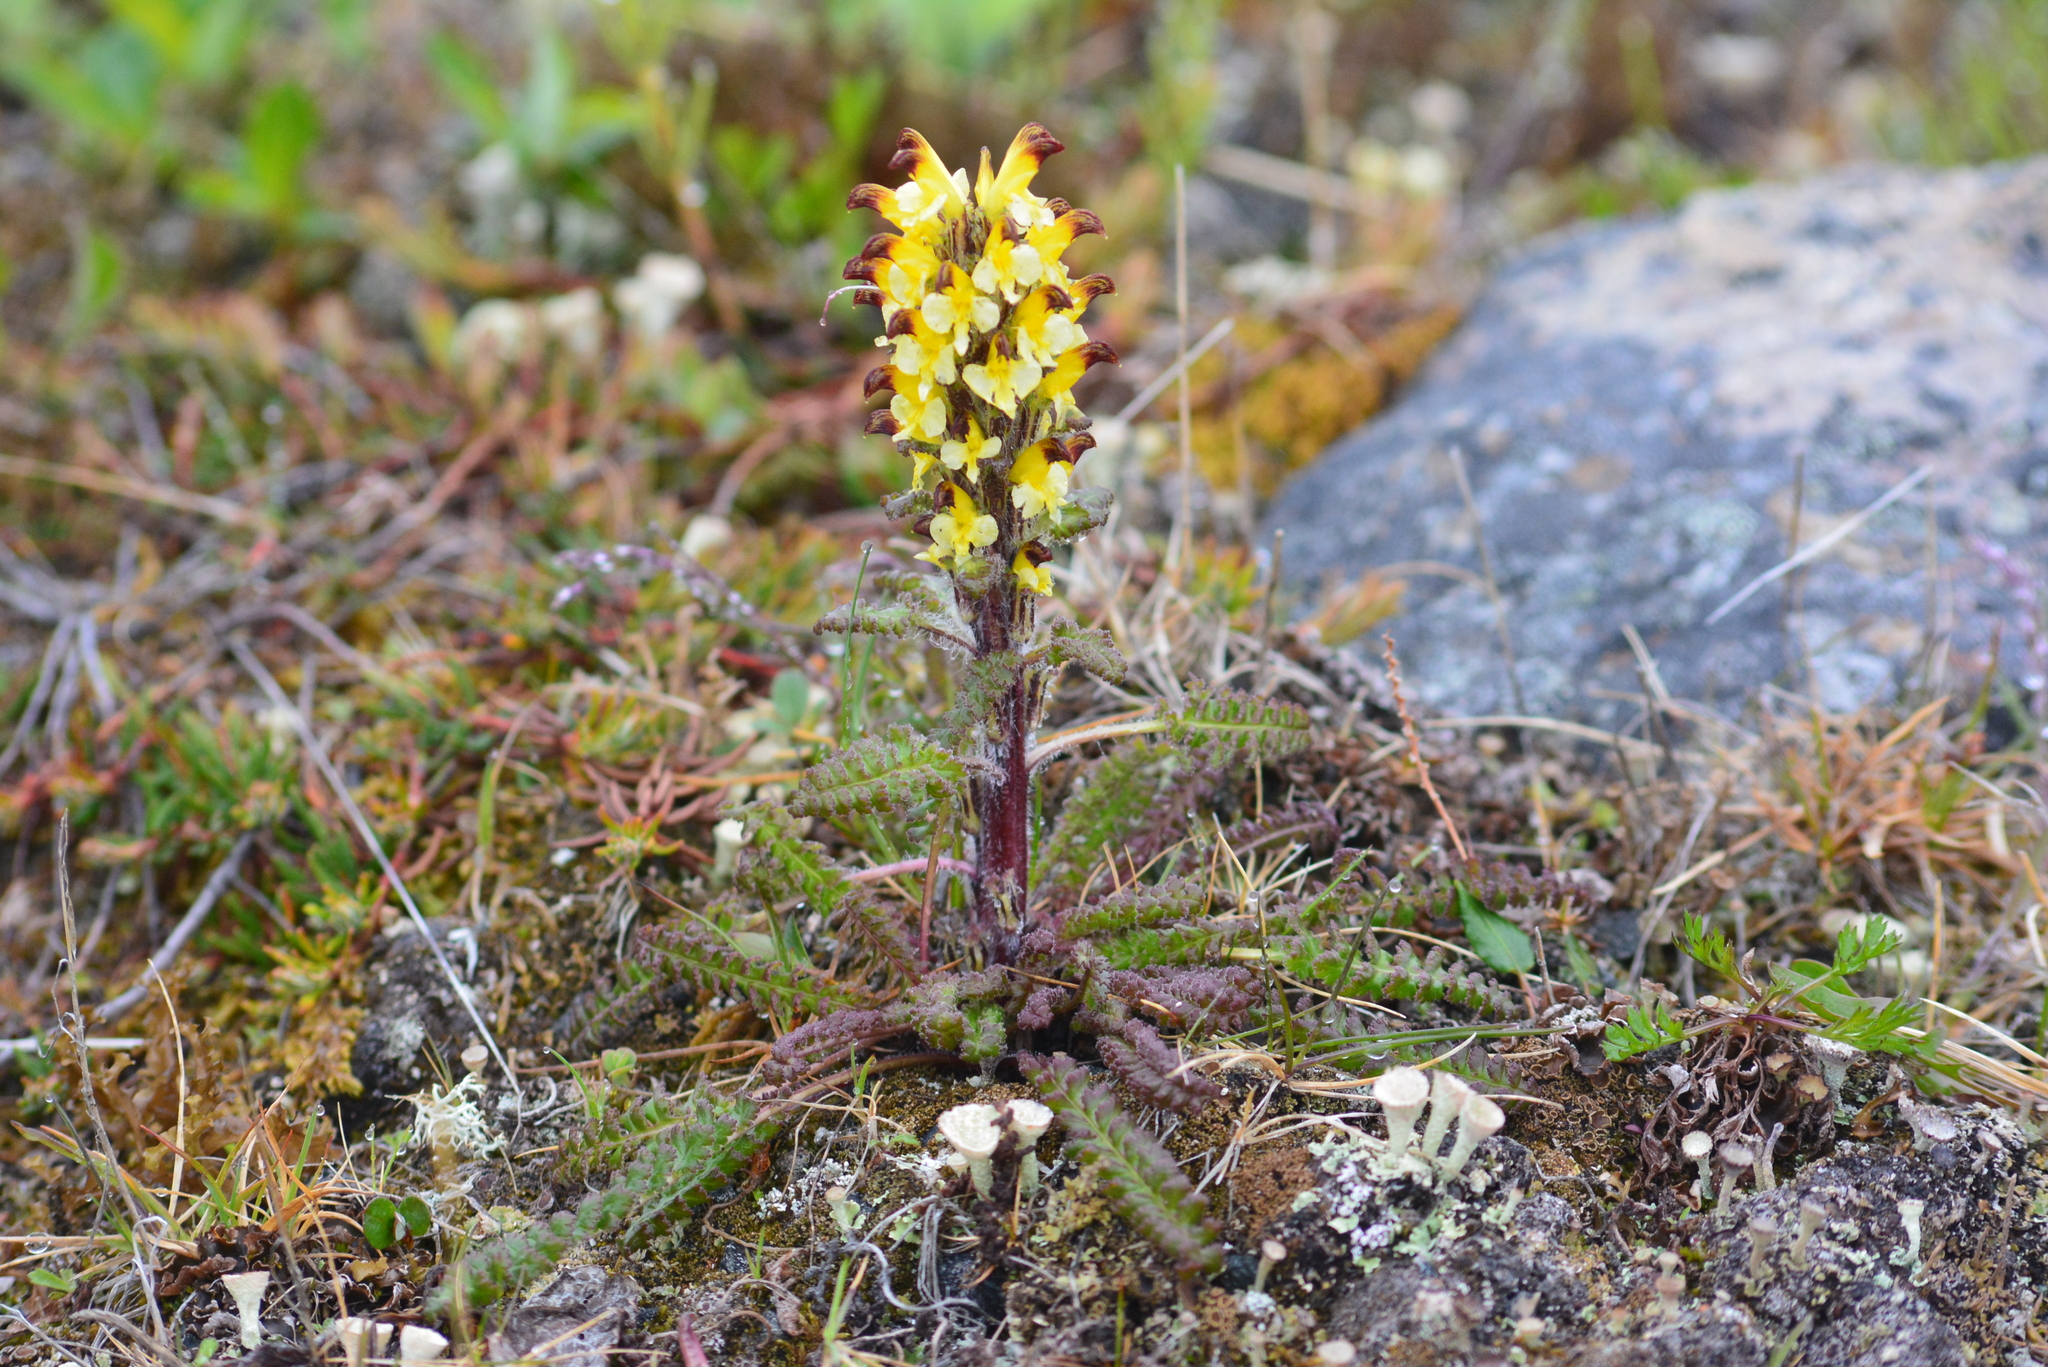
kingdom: Plantae
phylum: Tracheophyta
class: Magnoliopsida
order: Lamiales
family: Orobanchaceae
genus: Pedicularis
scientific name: Pedicularis oederi
